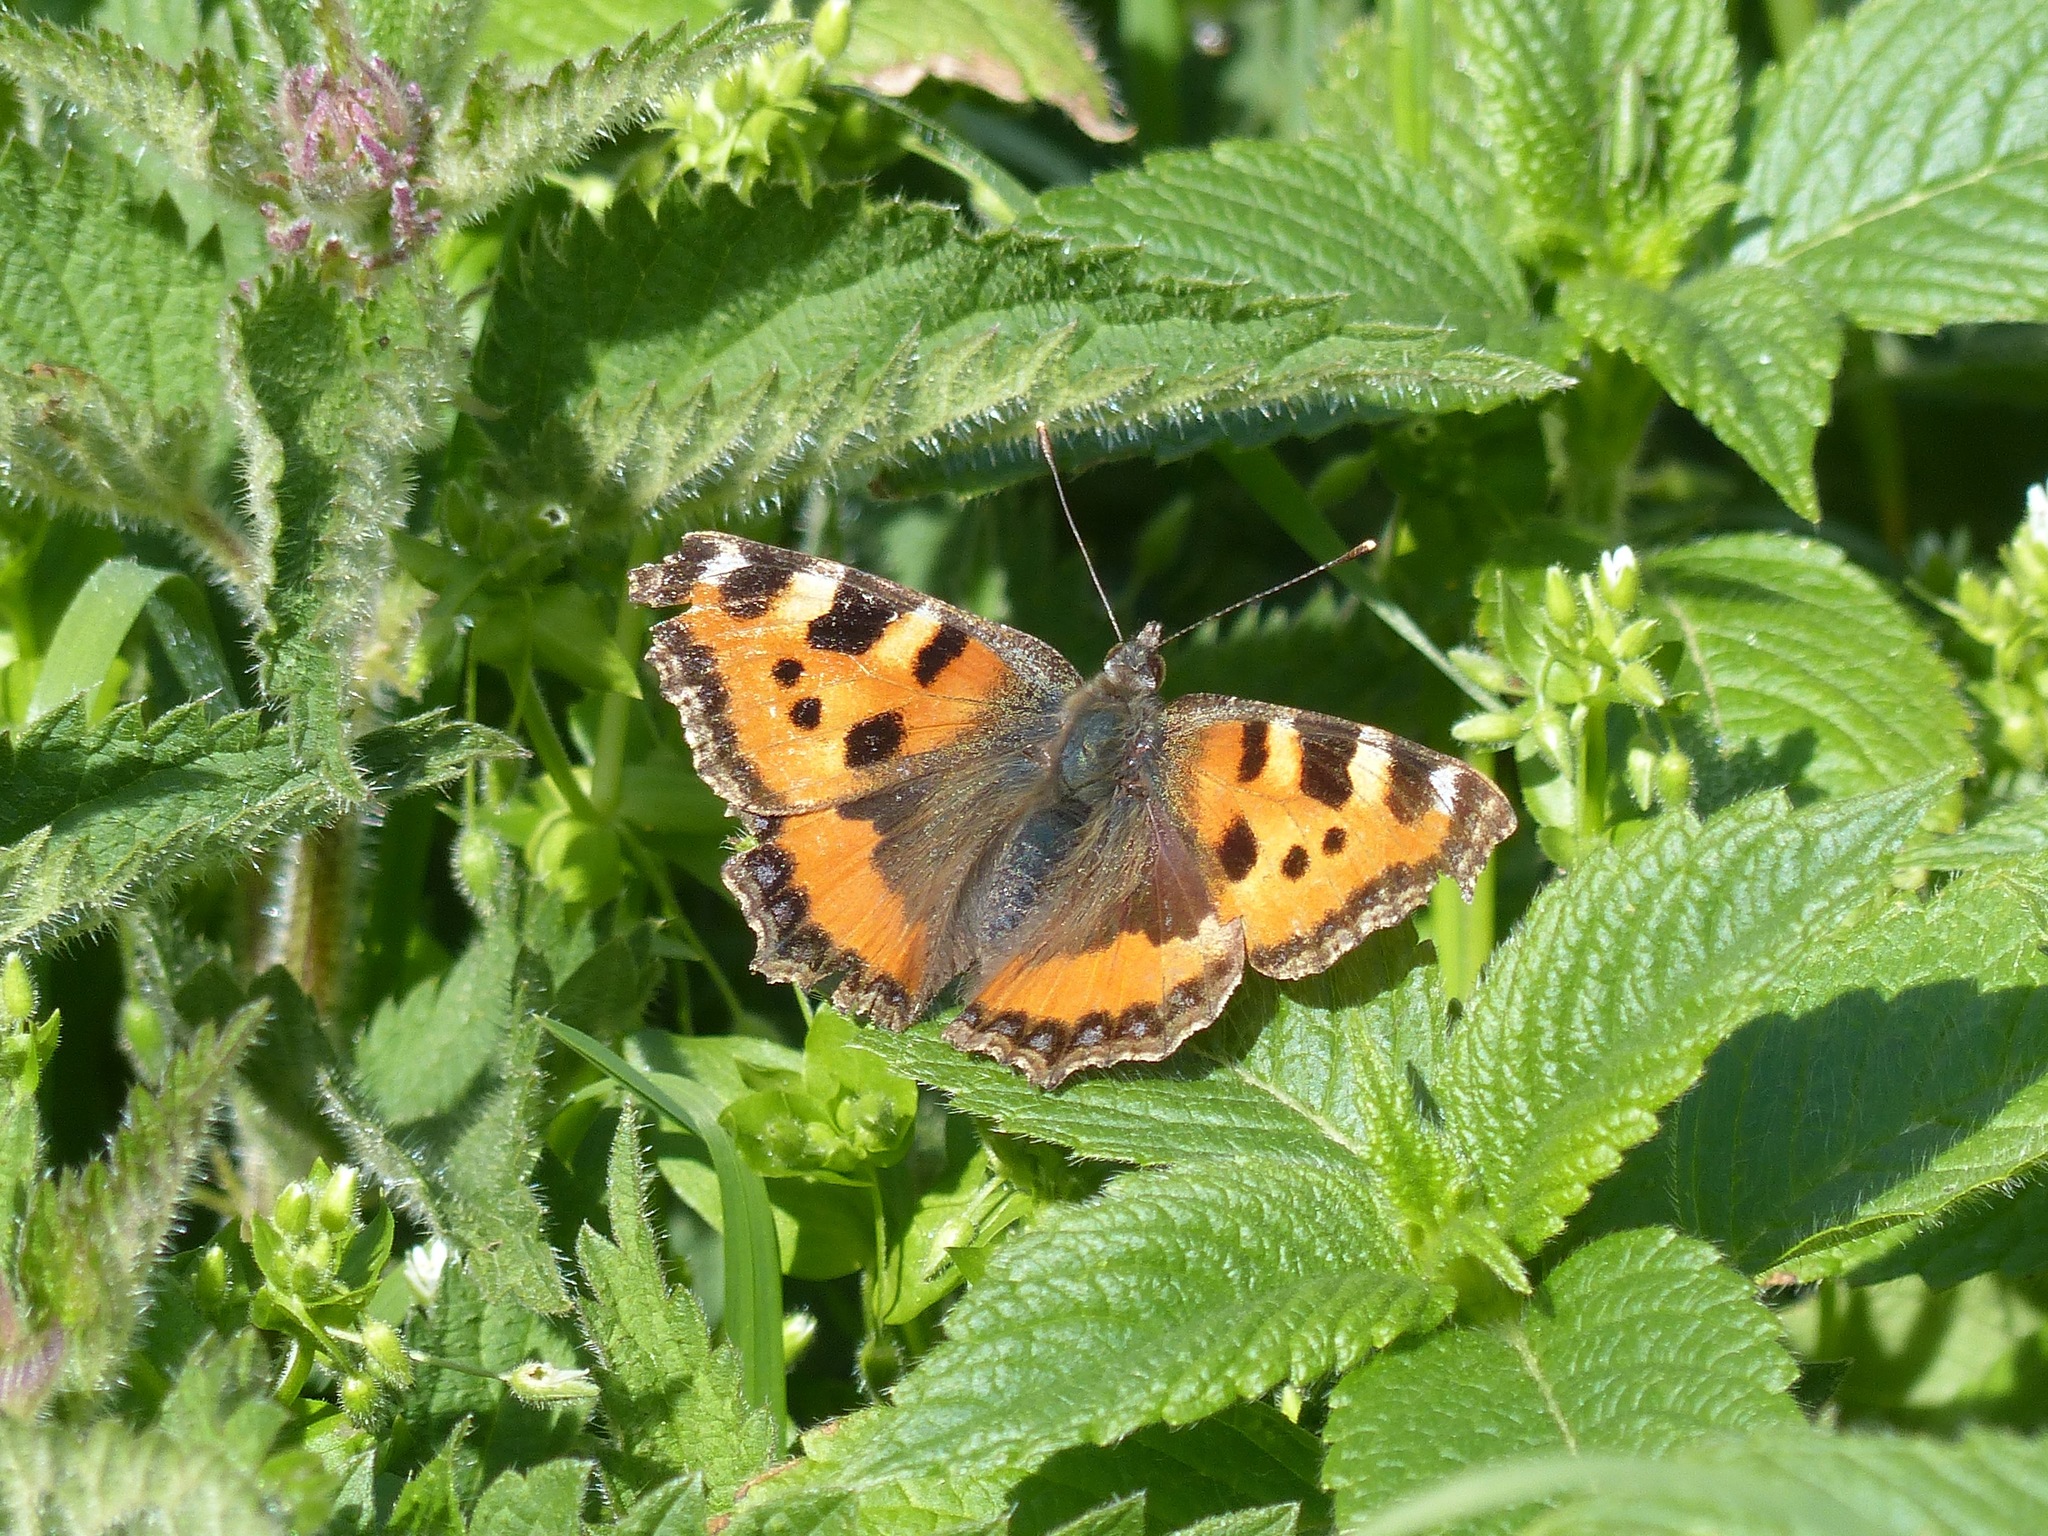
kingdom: Animalia
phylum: Arthropoda
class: Insecta
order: Lepidoptera
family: Nymphalidae
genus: Aglais
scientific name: Aglais urticae
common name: Small tortoiseshell
